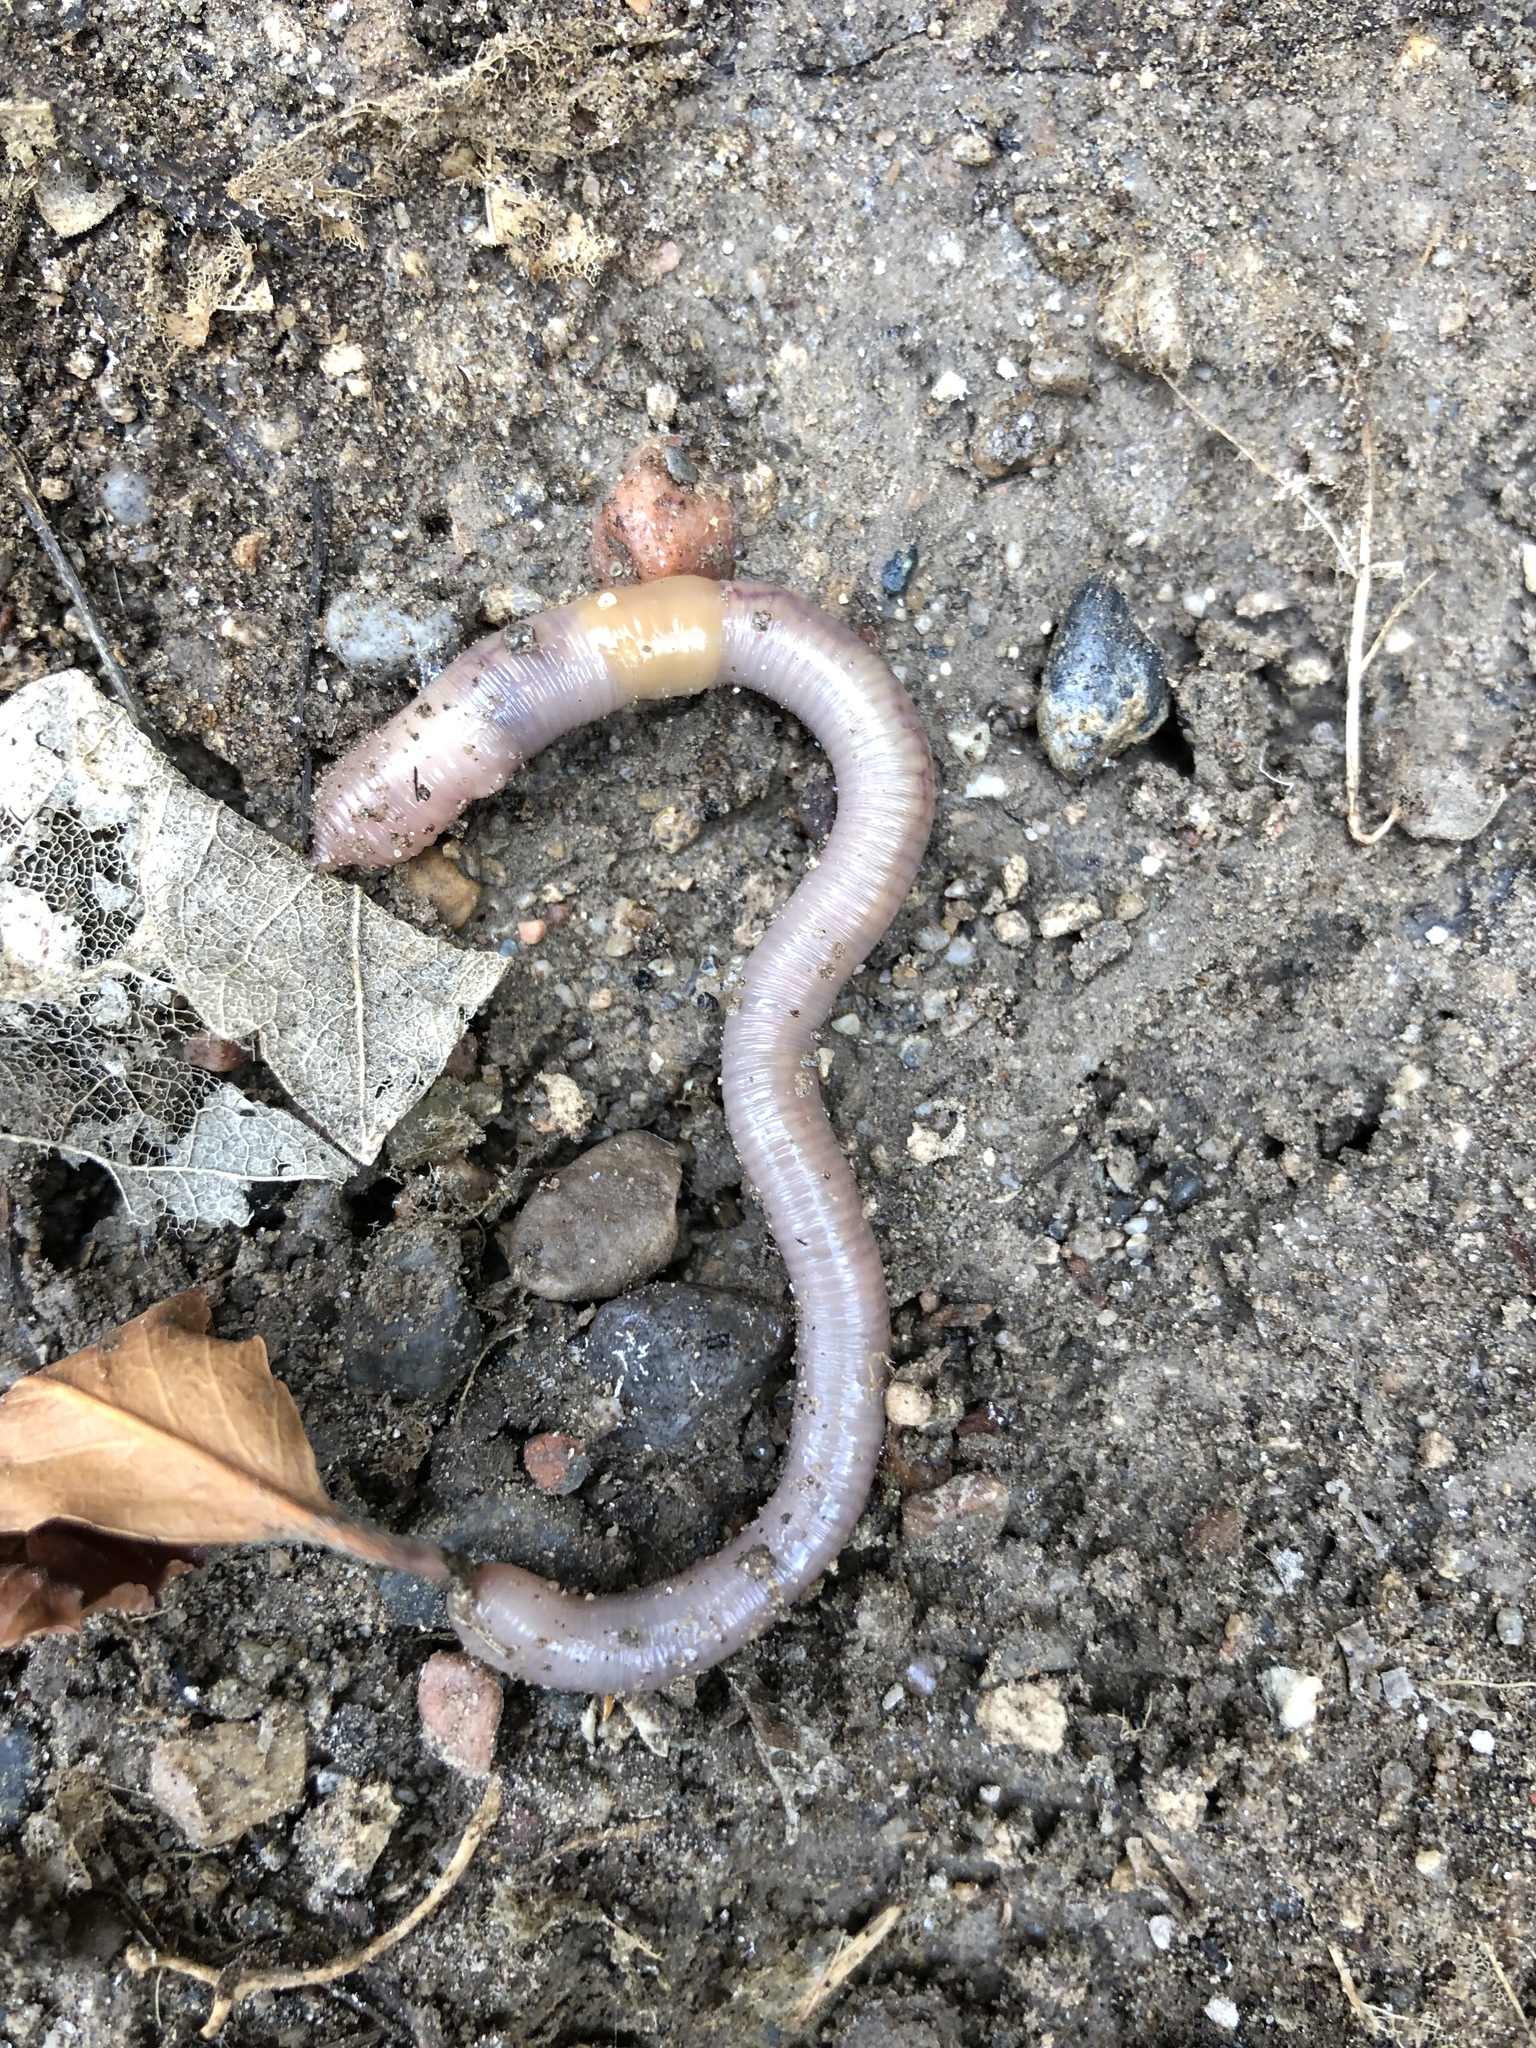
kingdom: Animalia
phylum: Annelida
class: Clitellata
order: Crassiclitellata
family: Lumbricidae
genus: Lumbricus
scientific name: Lumbricus terrestris
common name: Common earthworm
